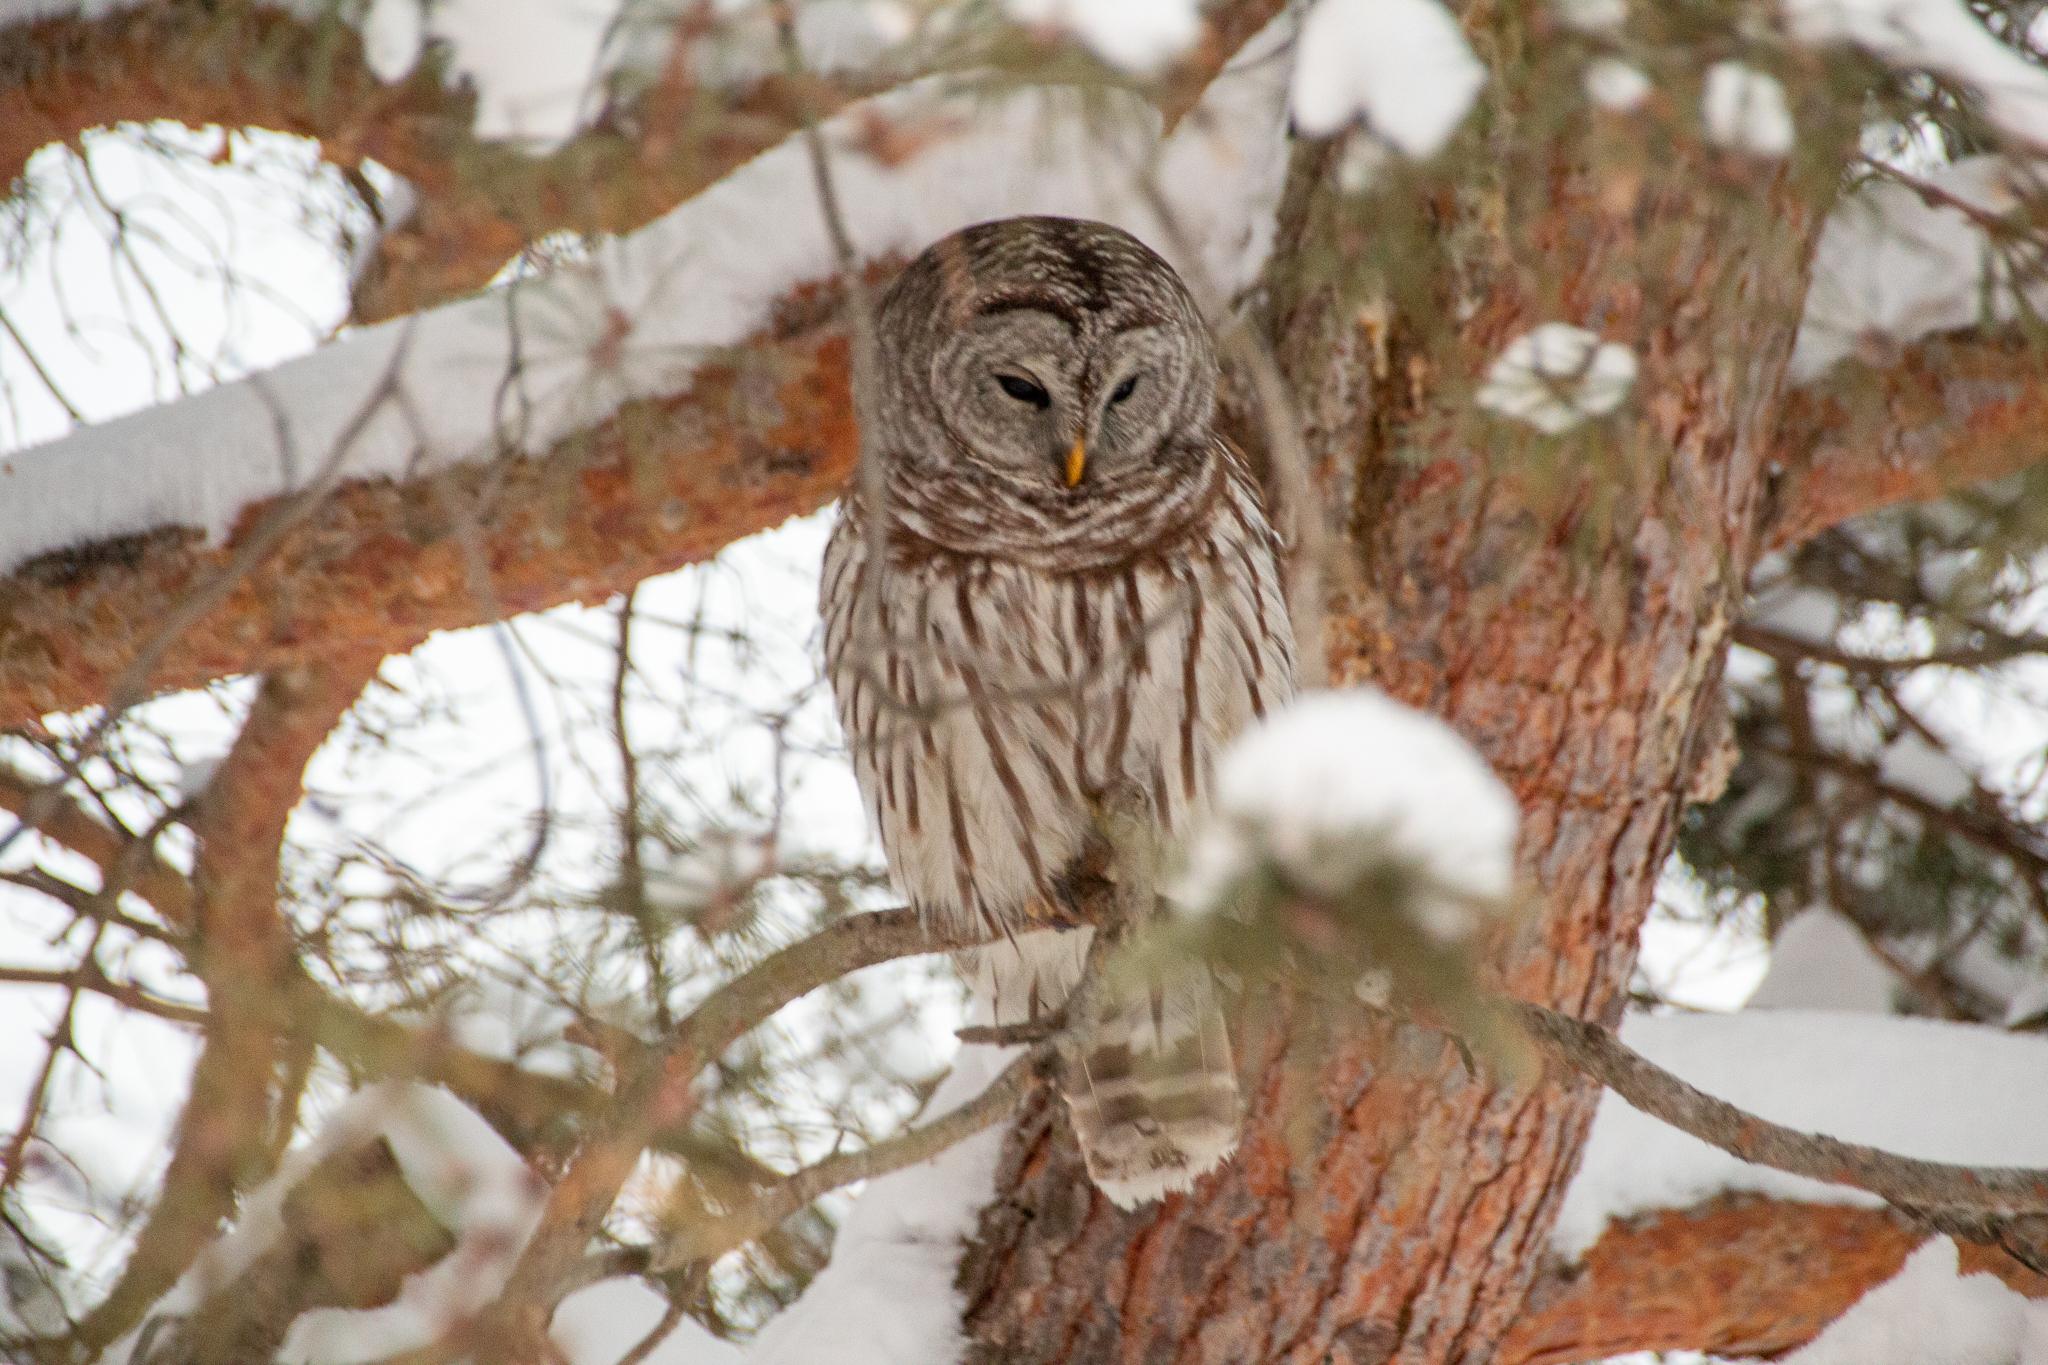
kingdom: Animalia
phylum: Chordata
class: Aves
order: Strigiformes
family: Strigidae
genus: Strix
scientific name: Strix varia
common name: Barred owl
